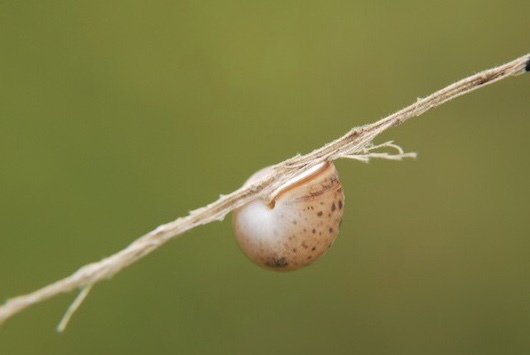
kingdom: Animalia
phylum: Mollusca
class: Gastropoda
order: Stylommatophora
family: Hygromiidae
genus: Monacha
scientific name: Monacha cartusiana
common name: Carthusian snail
